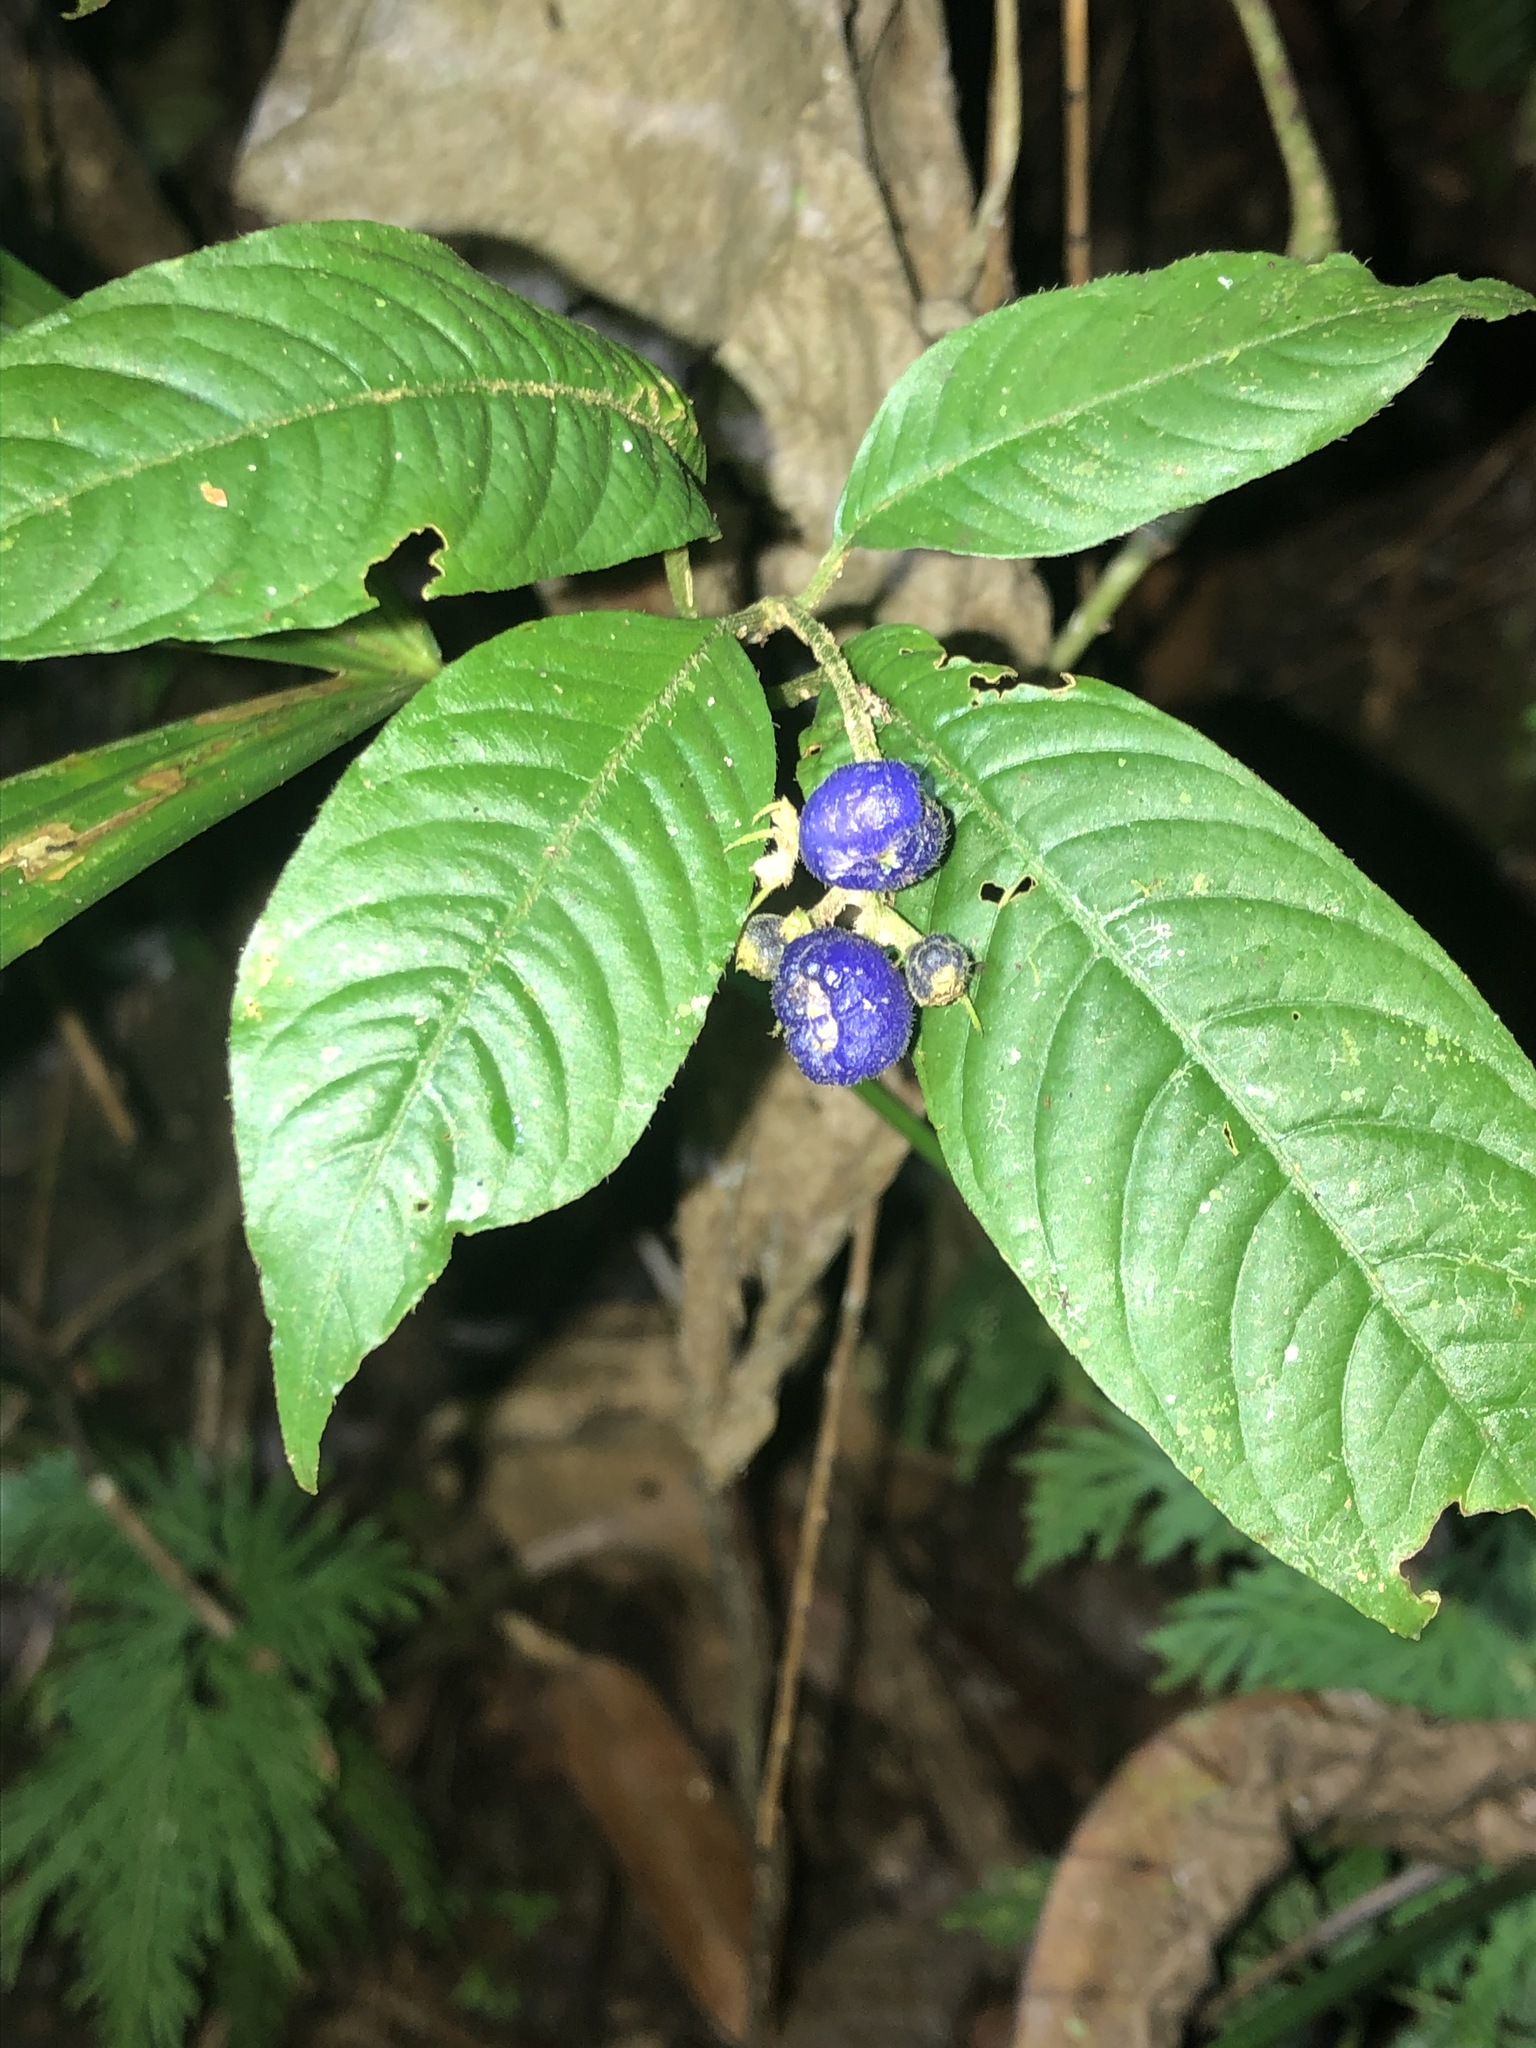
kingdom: Plantae
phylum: Tracheophyta
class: Magnoliopsida
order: Gentianales
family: Rubiaceae
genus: Palicourea
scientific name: Palicourea acicularis
